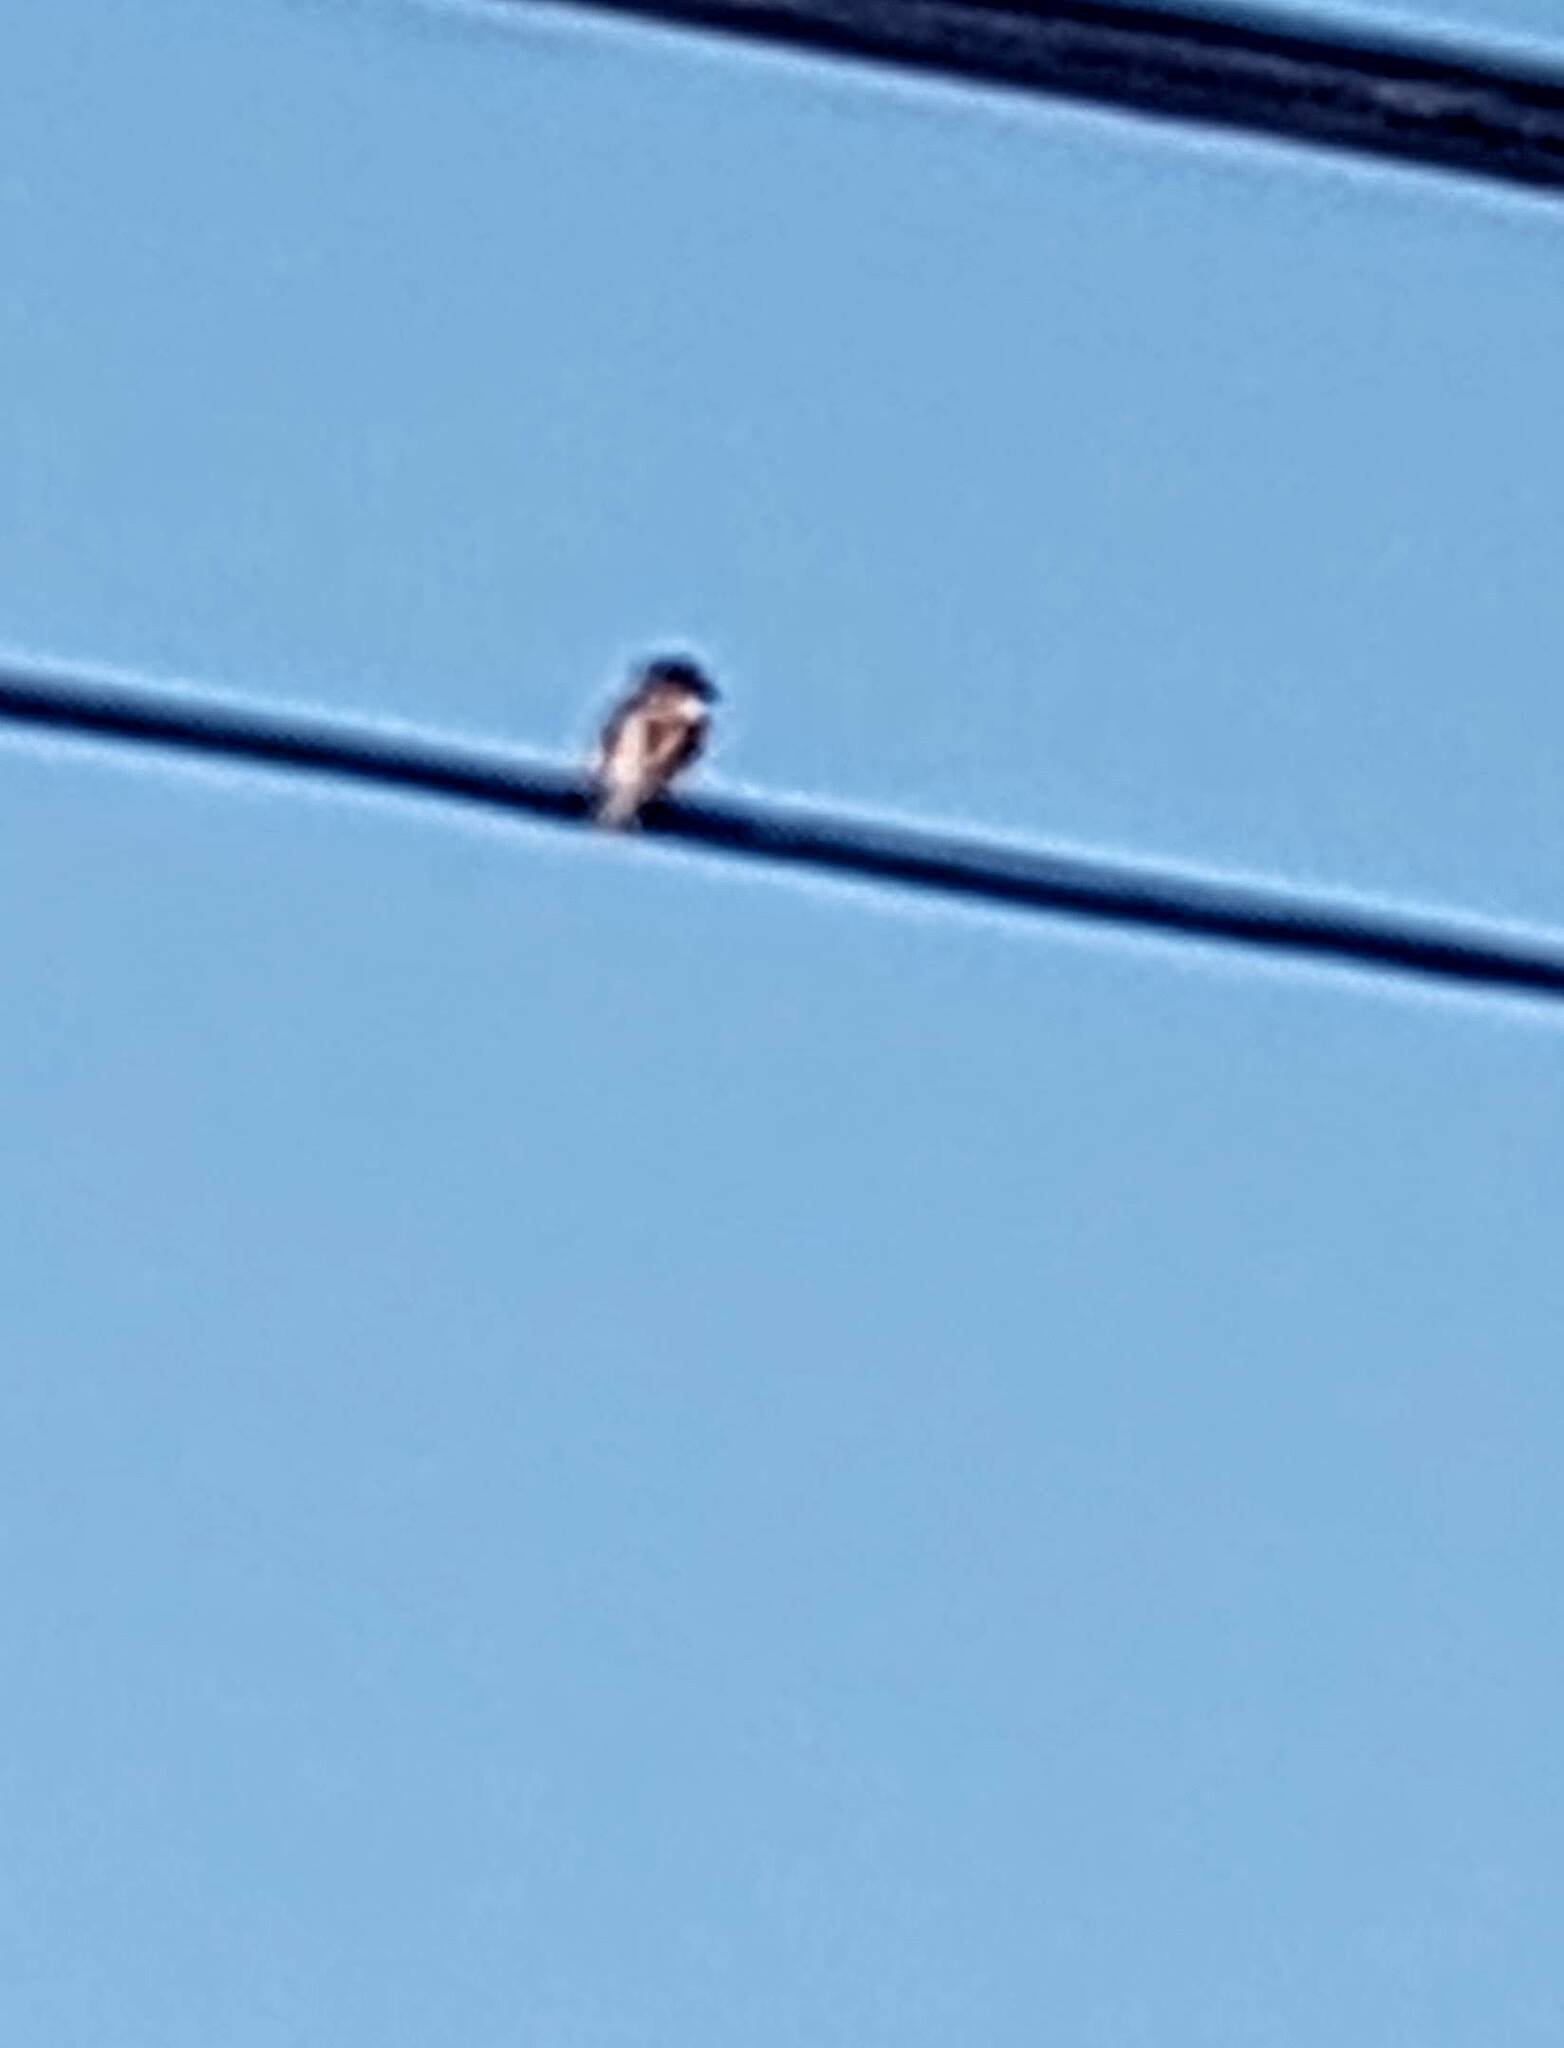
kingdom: Animalia
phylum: Chordata
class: Aves
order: Passeriformes
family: Passeridae
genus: Passer
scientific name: Passer domesticus
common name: House sparrow
